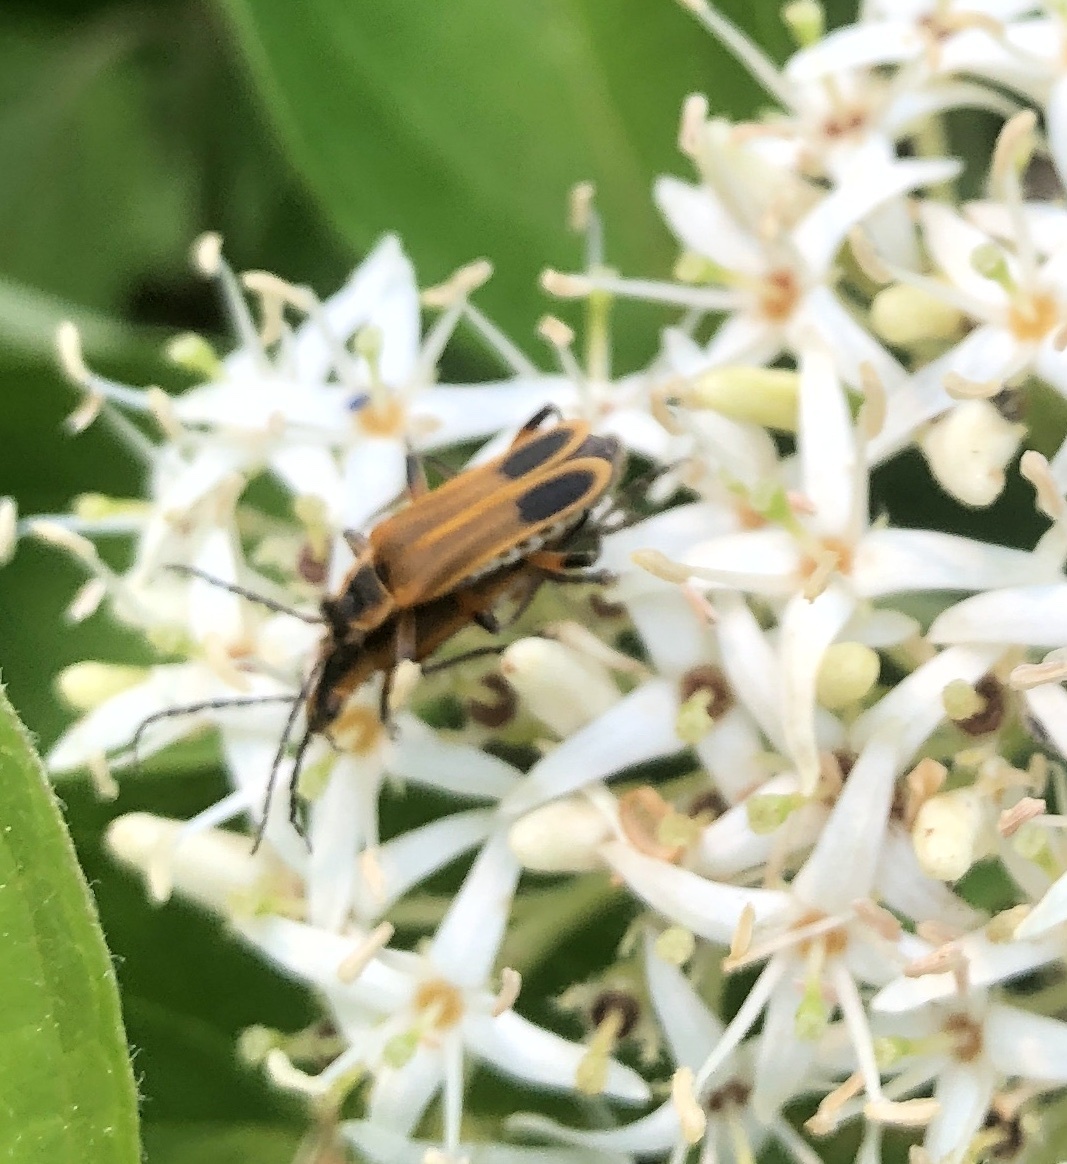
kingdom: Animalia
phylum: Arthropoda
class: Insecta
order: Coleoptera
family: Cantharidae
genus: Chauliognathus
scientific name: Chauliognathus marginatus
